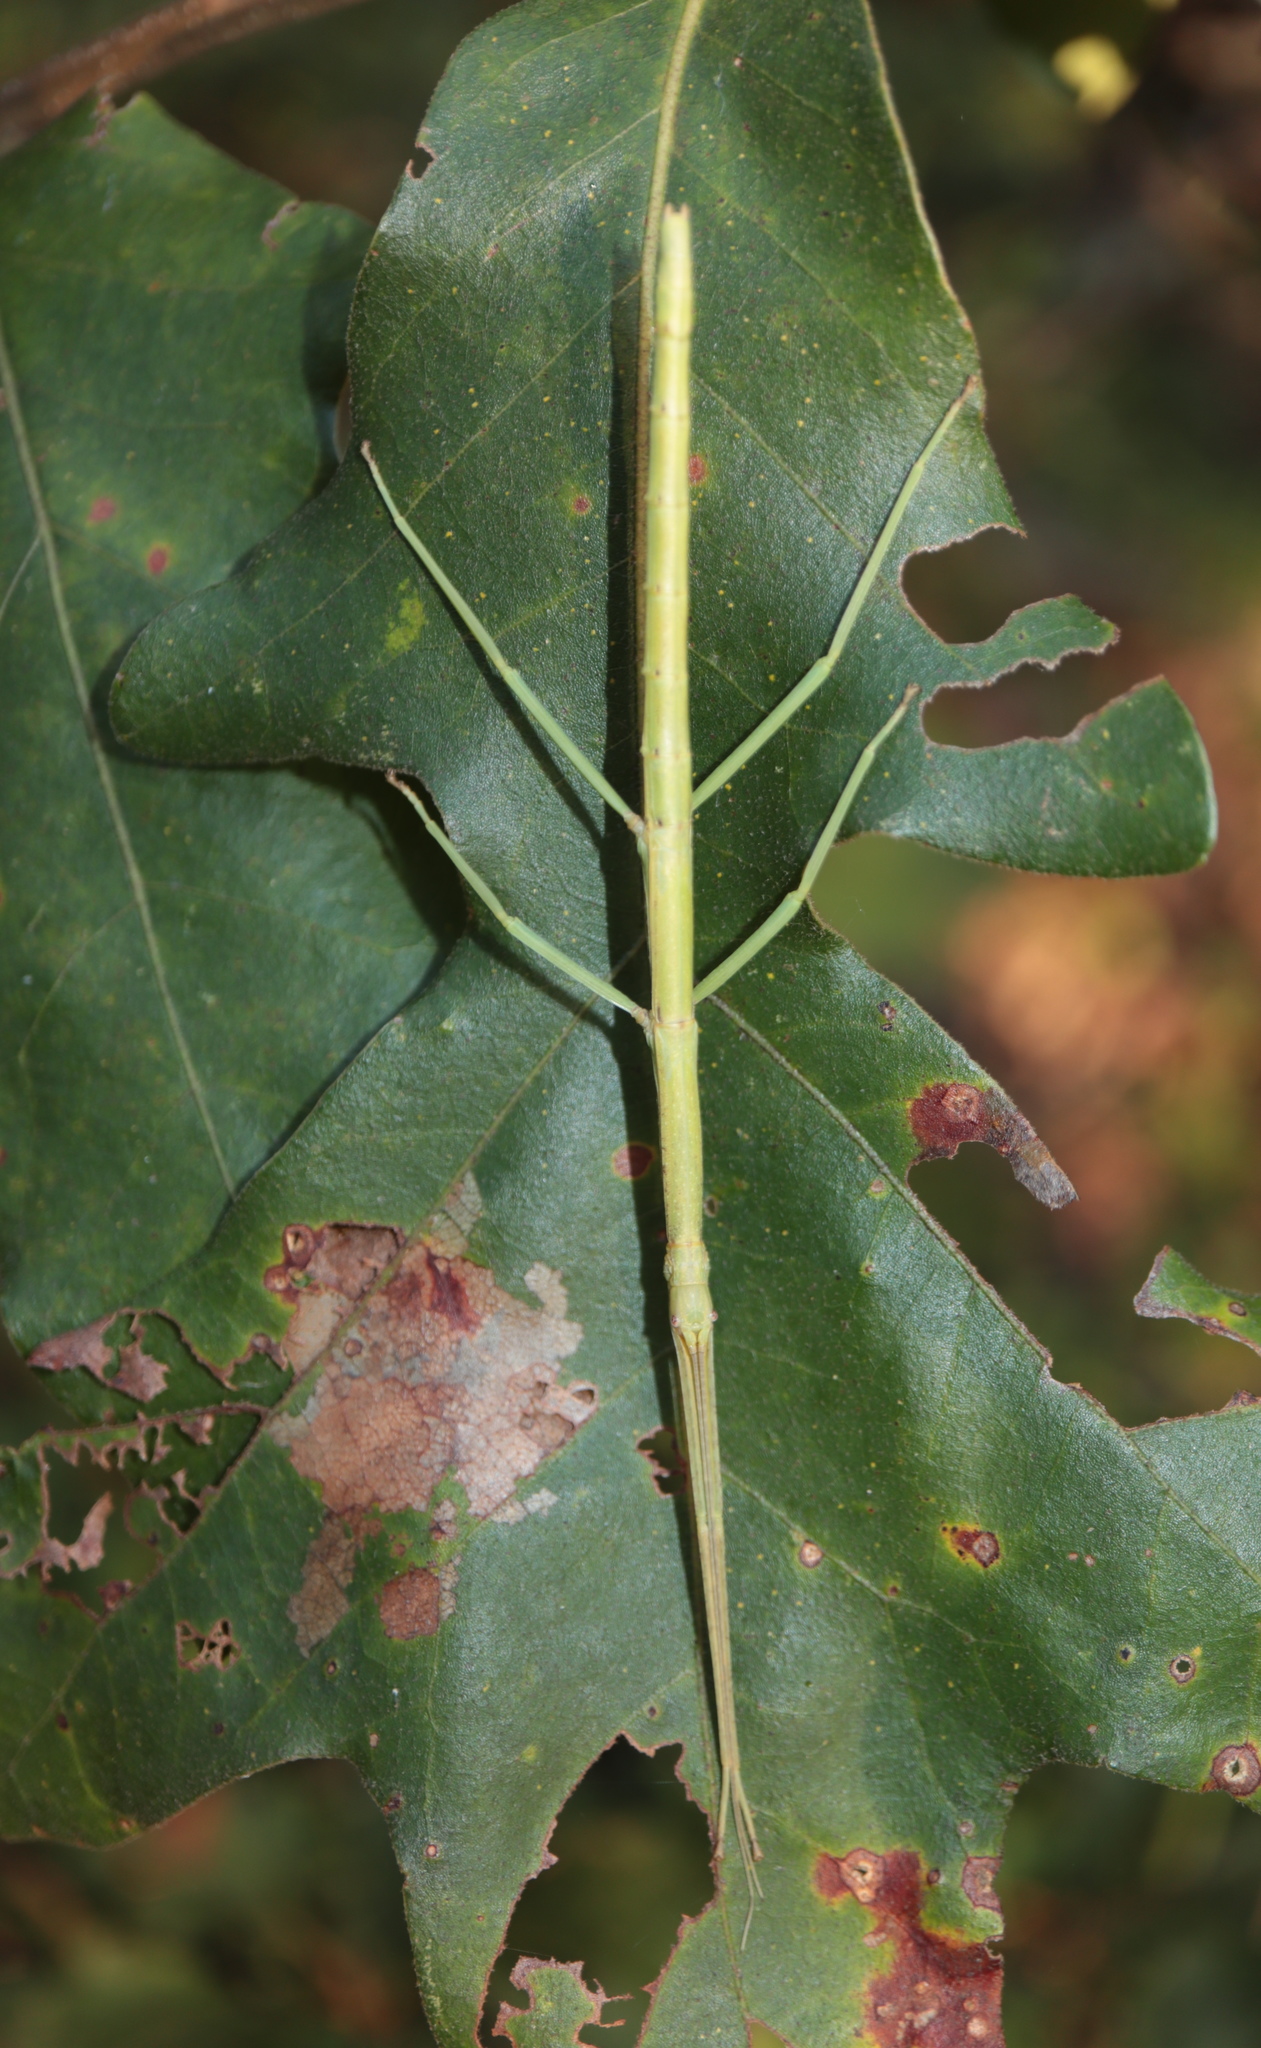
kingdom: Animalia
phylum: Arthropoda
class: Insecta
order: Phasmida
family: Diapheromeridae
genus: Diapheromera
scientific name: Diapheromera femorata
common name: Common american walkingstick
